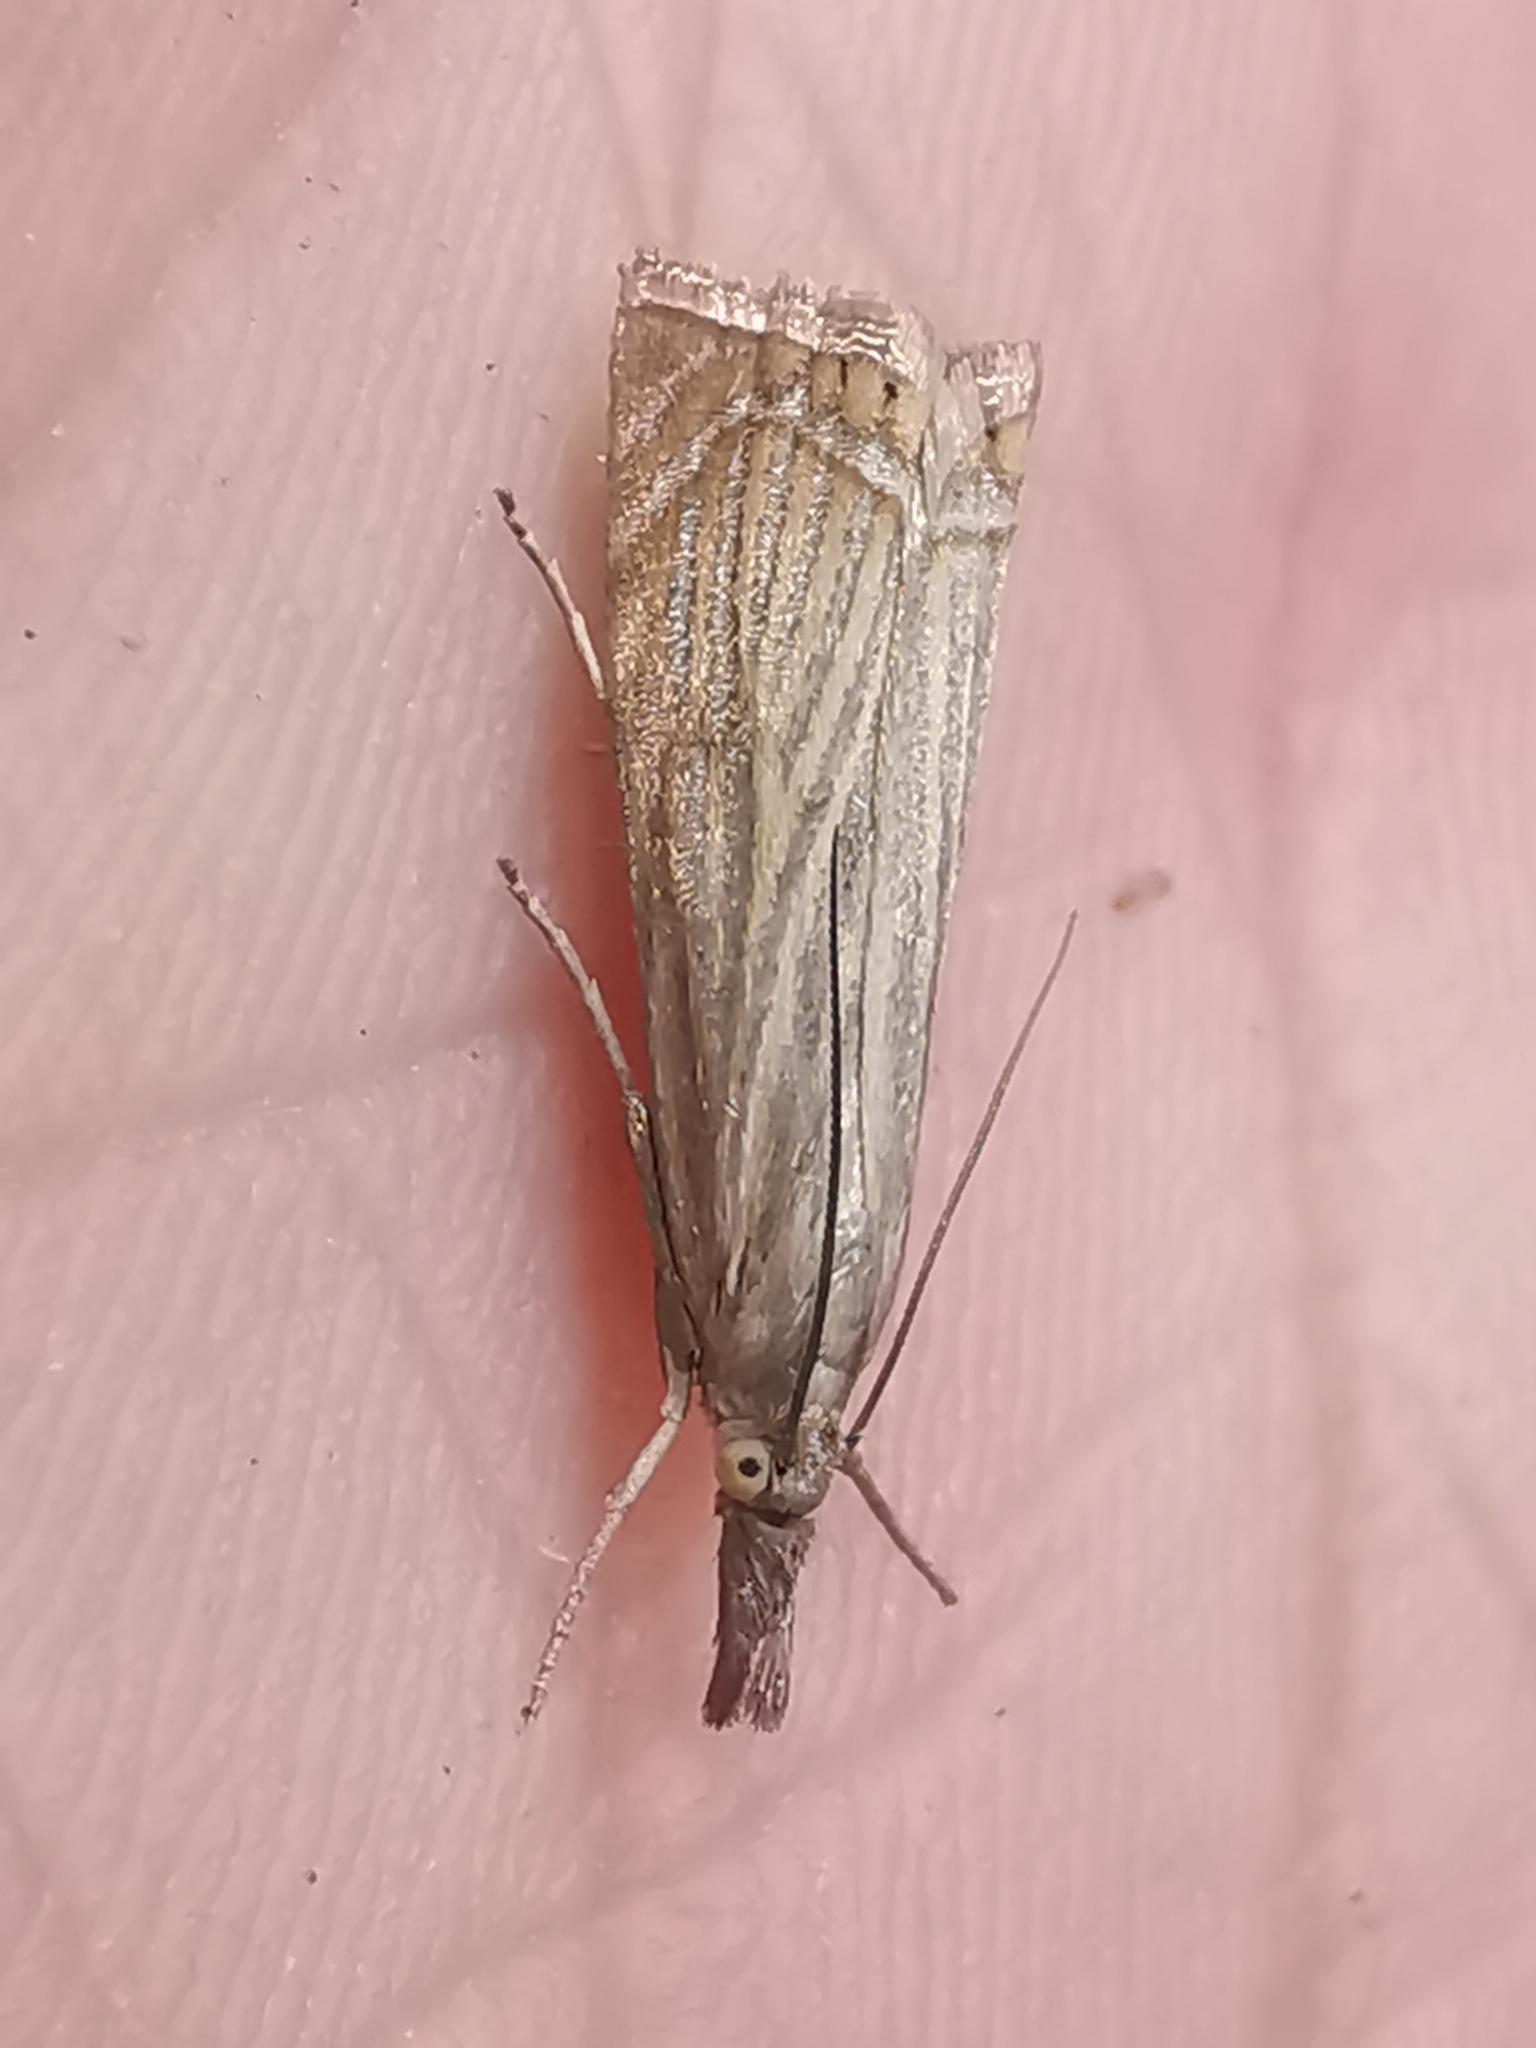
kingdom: Animalia
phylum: Arthropoda
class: Insecta
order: Lepidoptera
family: Crambidae
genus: Chrysoteuchia
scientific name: Chrysoteuchia culmella
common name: Garden grass-veneer
